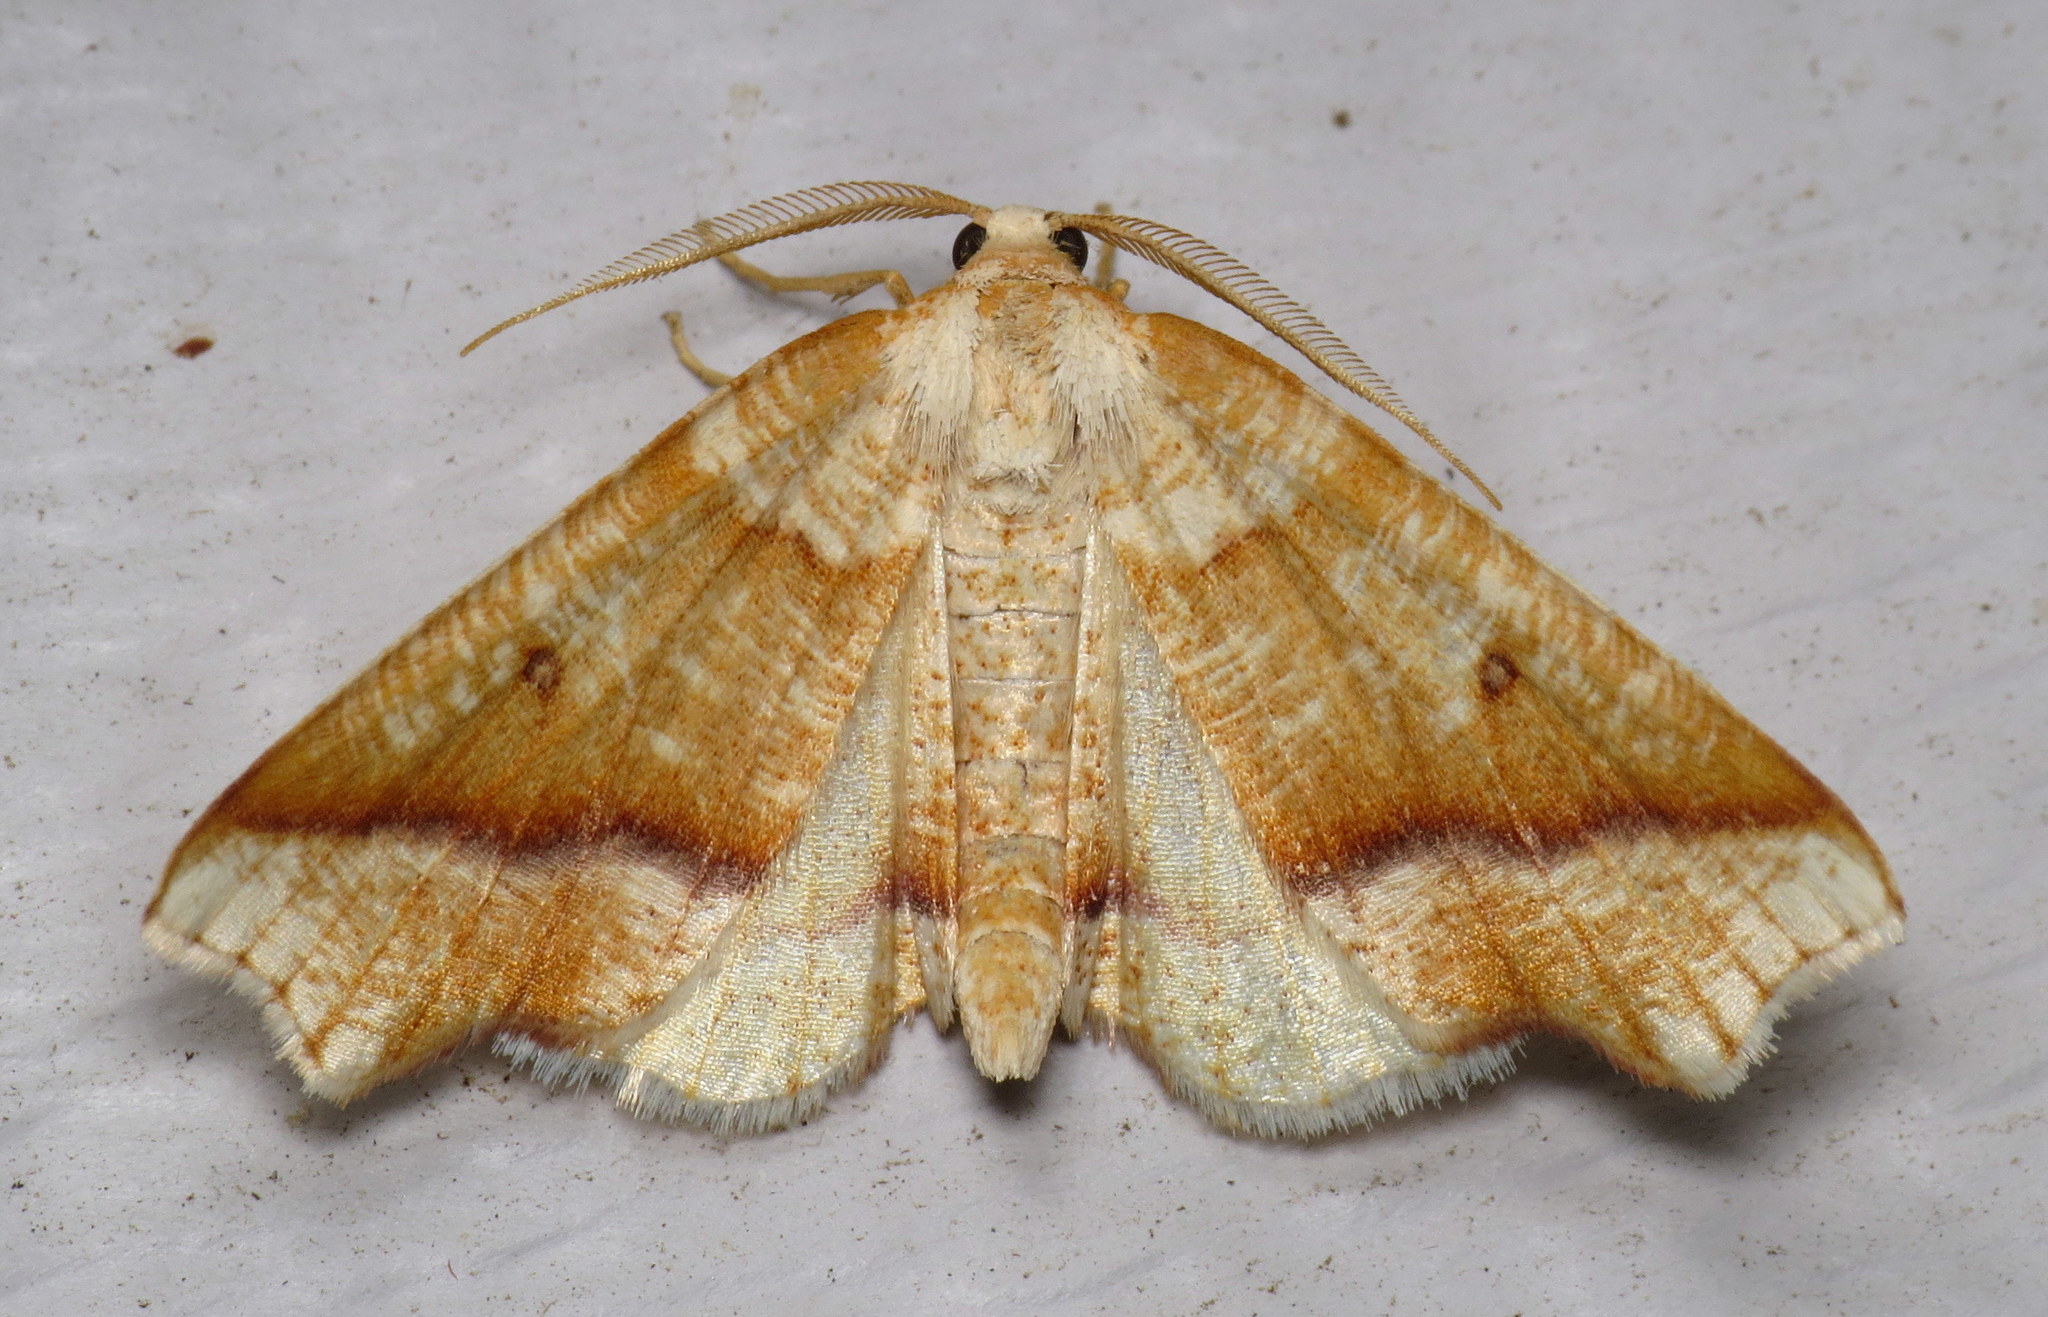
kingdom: Animalia
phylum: Arthropoda
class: Insecta
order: Lepidoptera
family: Geometridae
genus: Plagodis
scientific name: Plagodis alcoolaria
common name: Hollow-spotted plagodis
